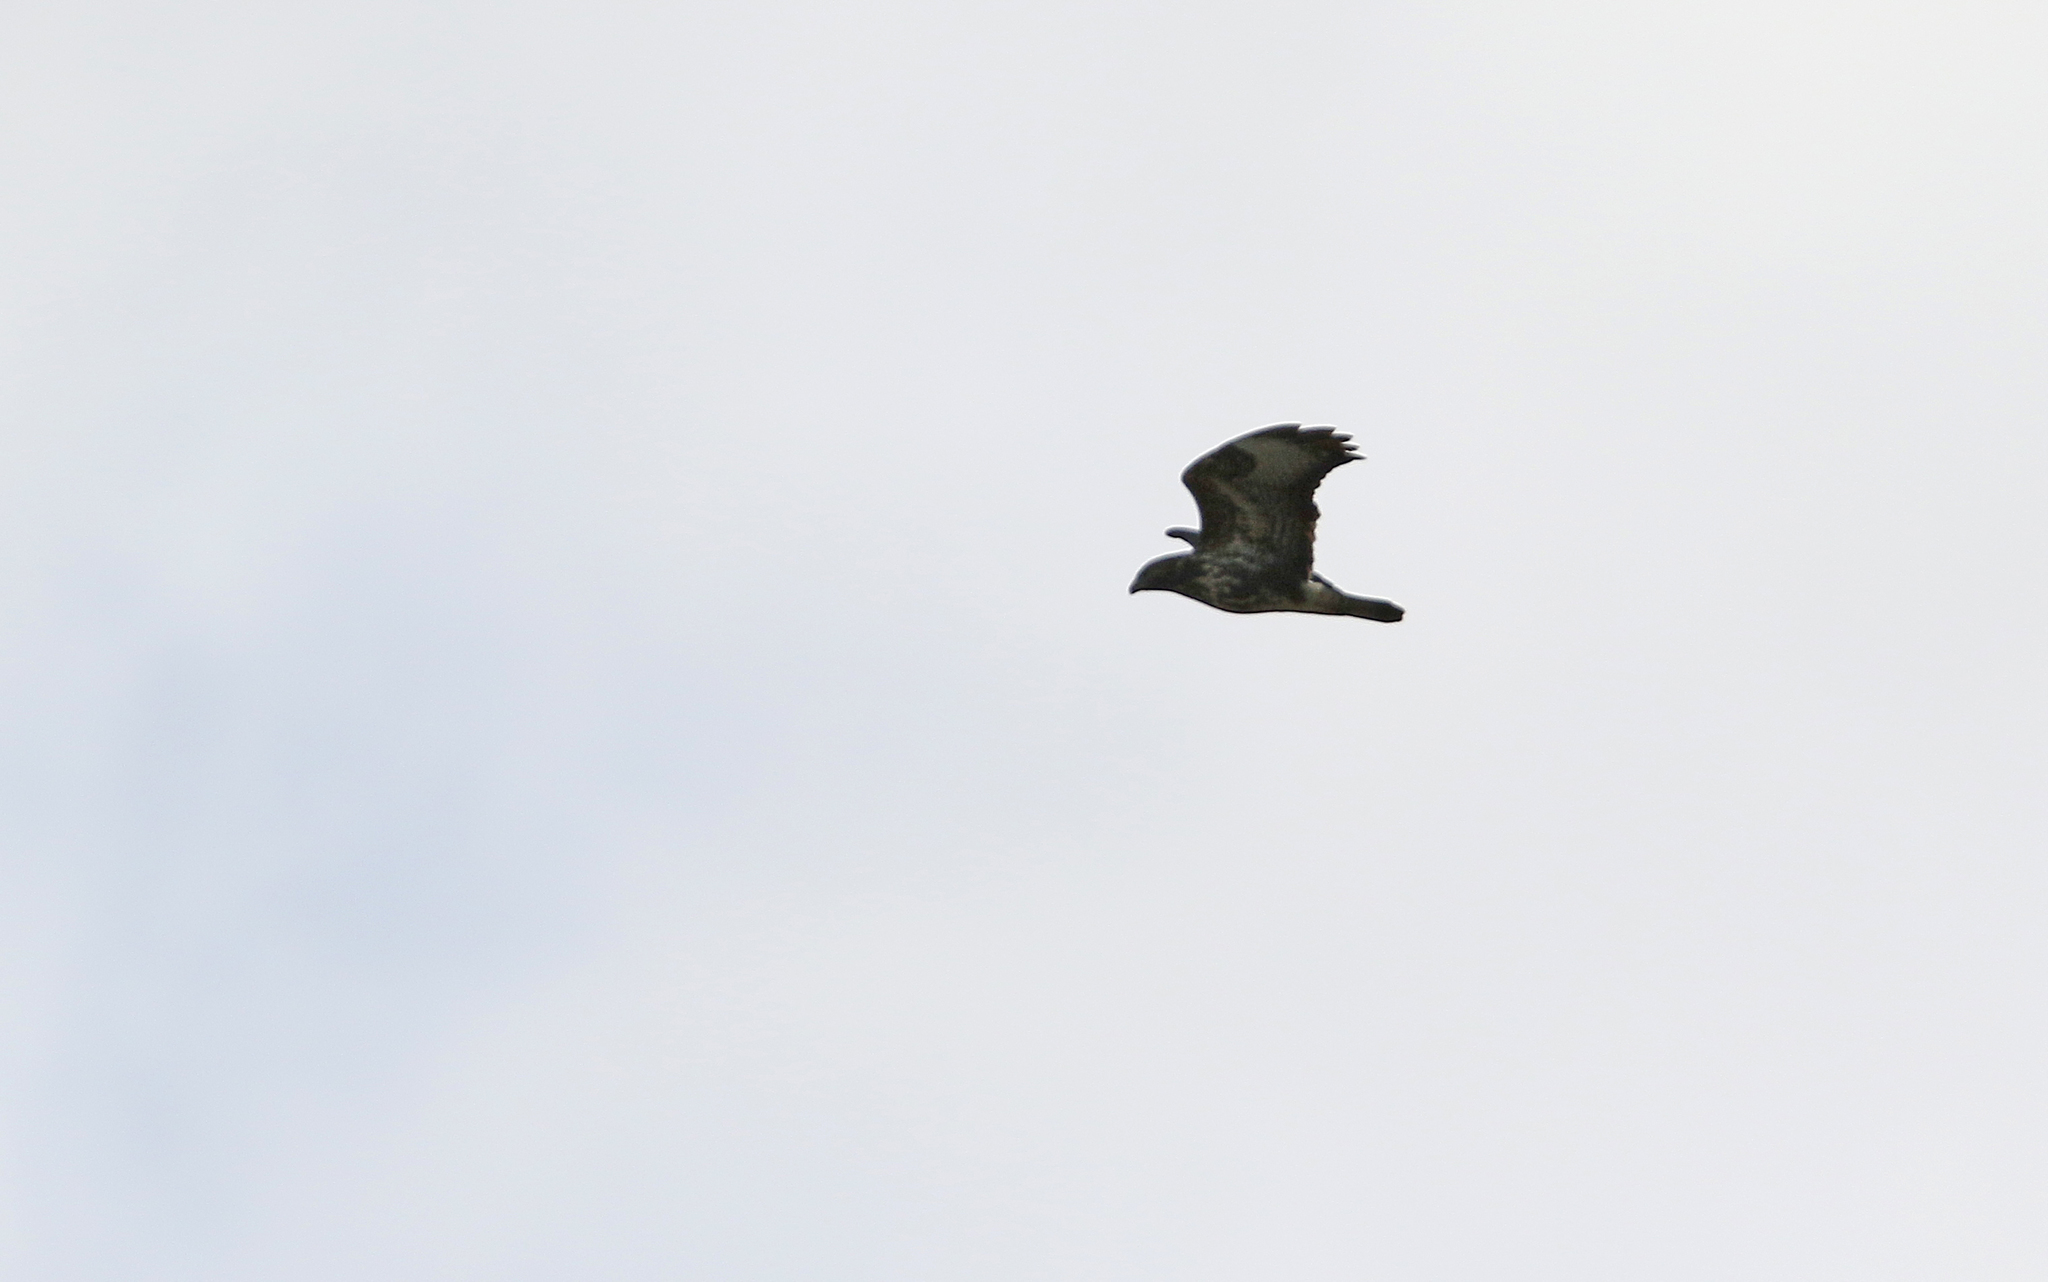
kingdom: Animalia
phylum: Chordata
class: Aves
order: Accipitriformes
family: Accipitridae
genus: Buteo
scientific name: Buteo buteo
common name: Common buzzard
